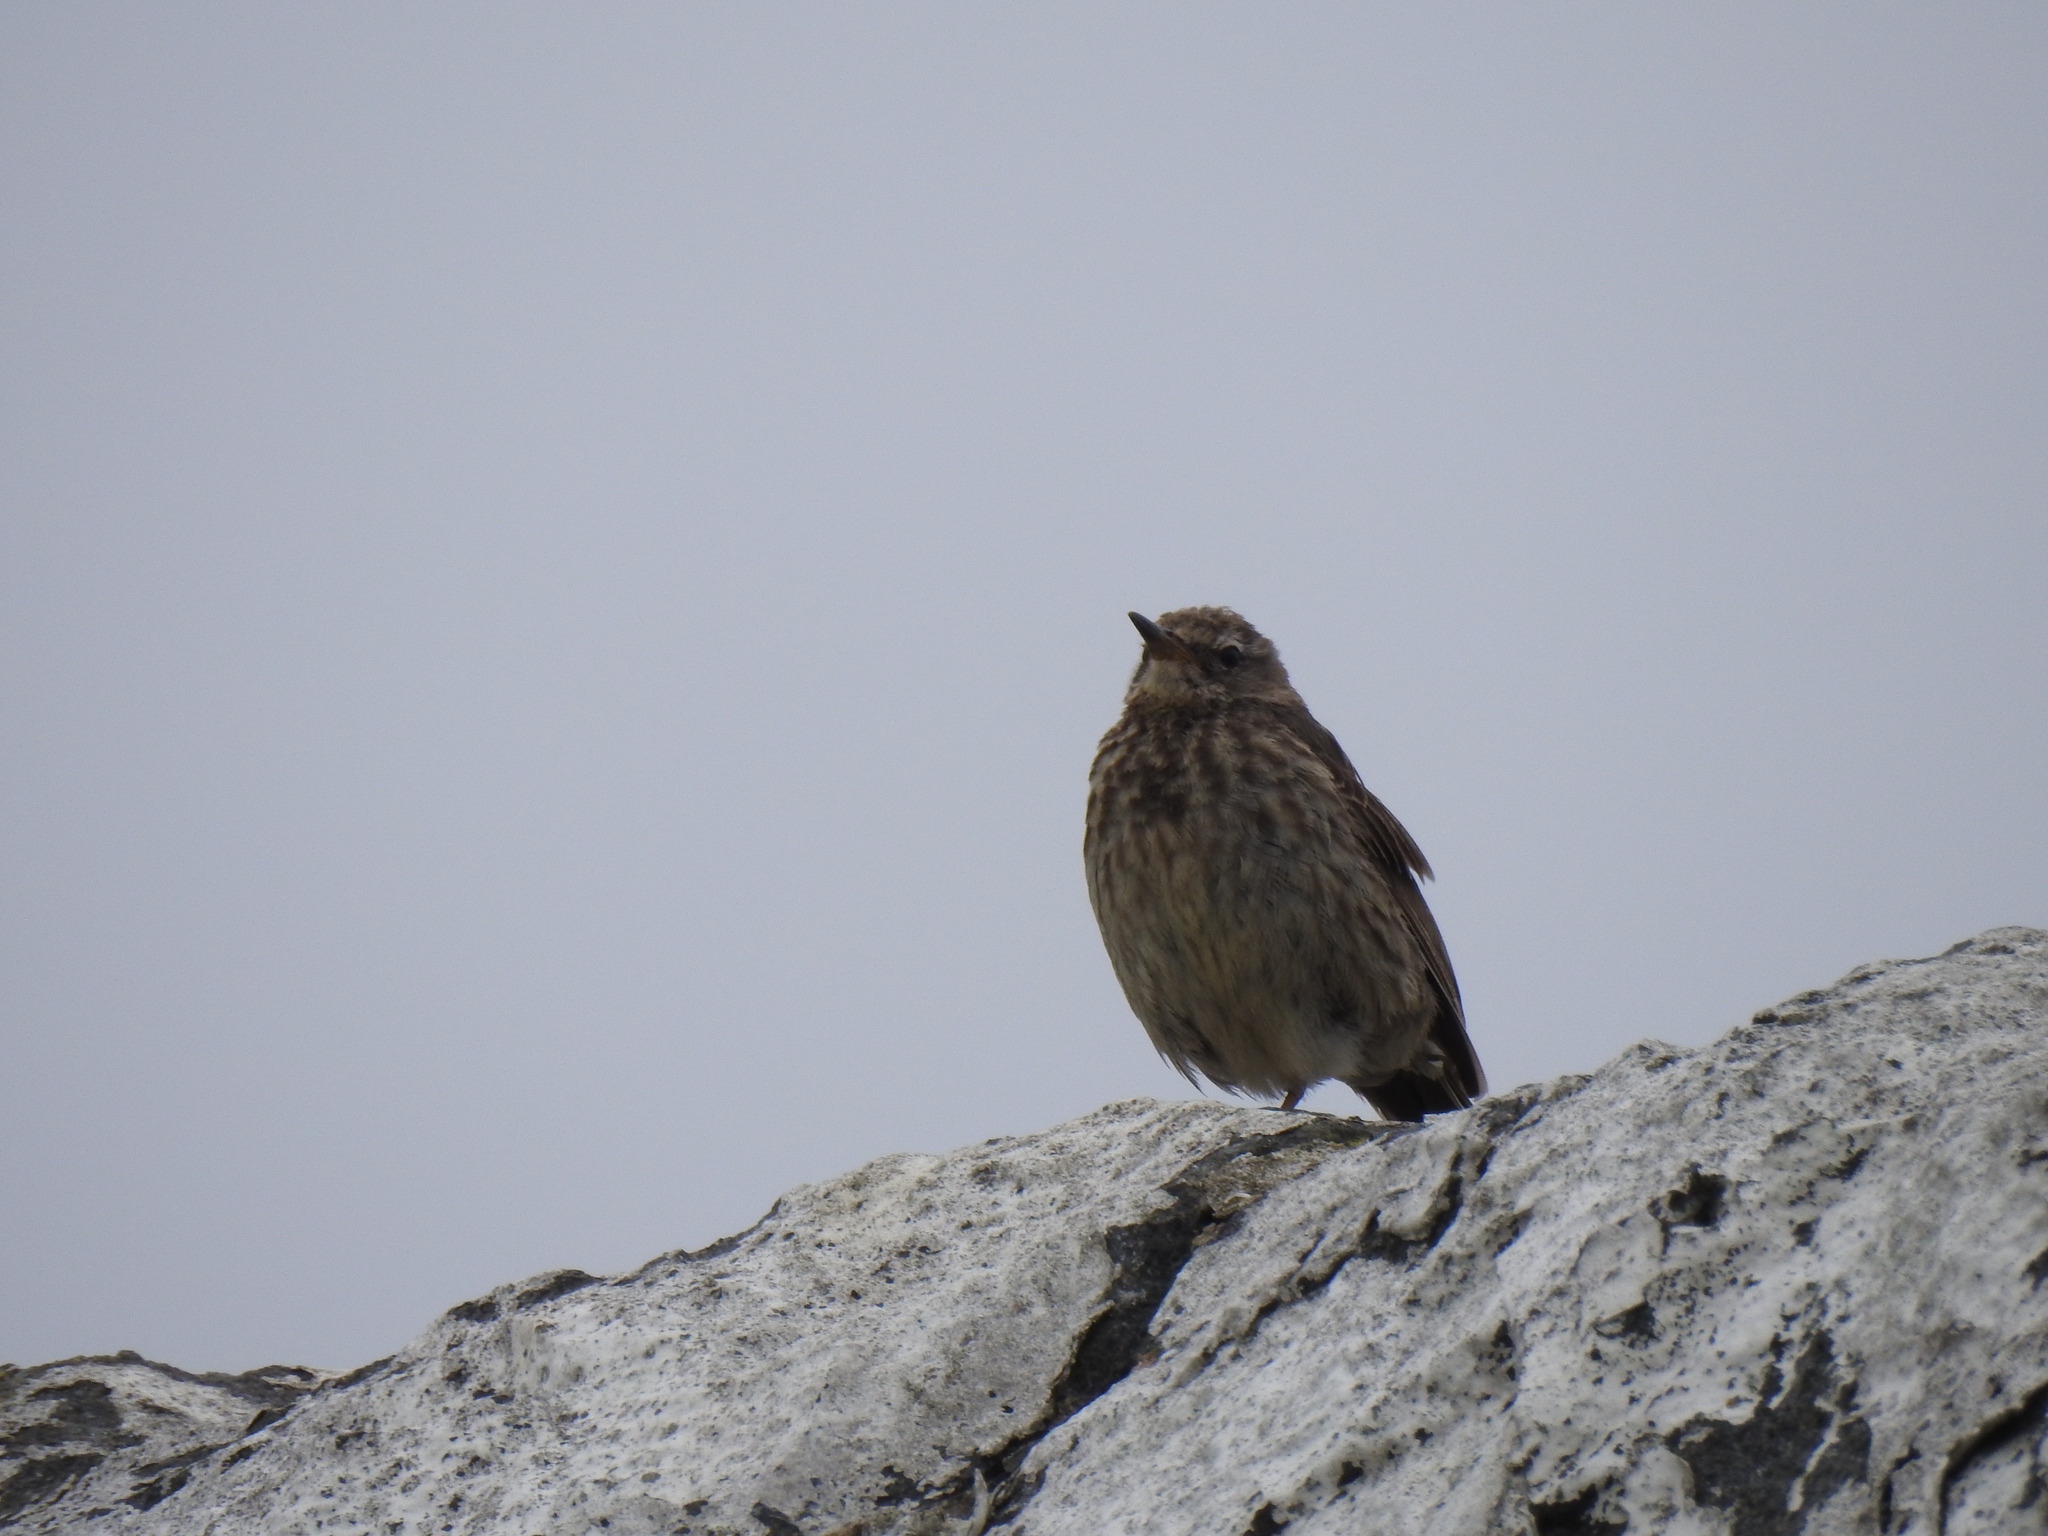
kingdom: Animalia
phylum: Chordata
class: Aves
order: Passeriformes
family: Motacillidae
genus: Anthus
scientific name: Anthus petrosus
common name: Eurasian rock pipit
